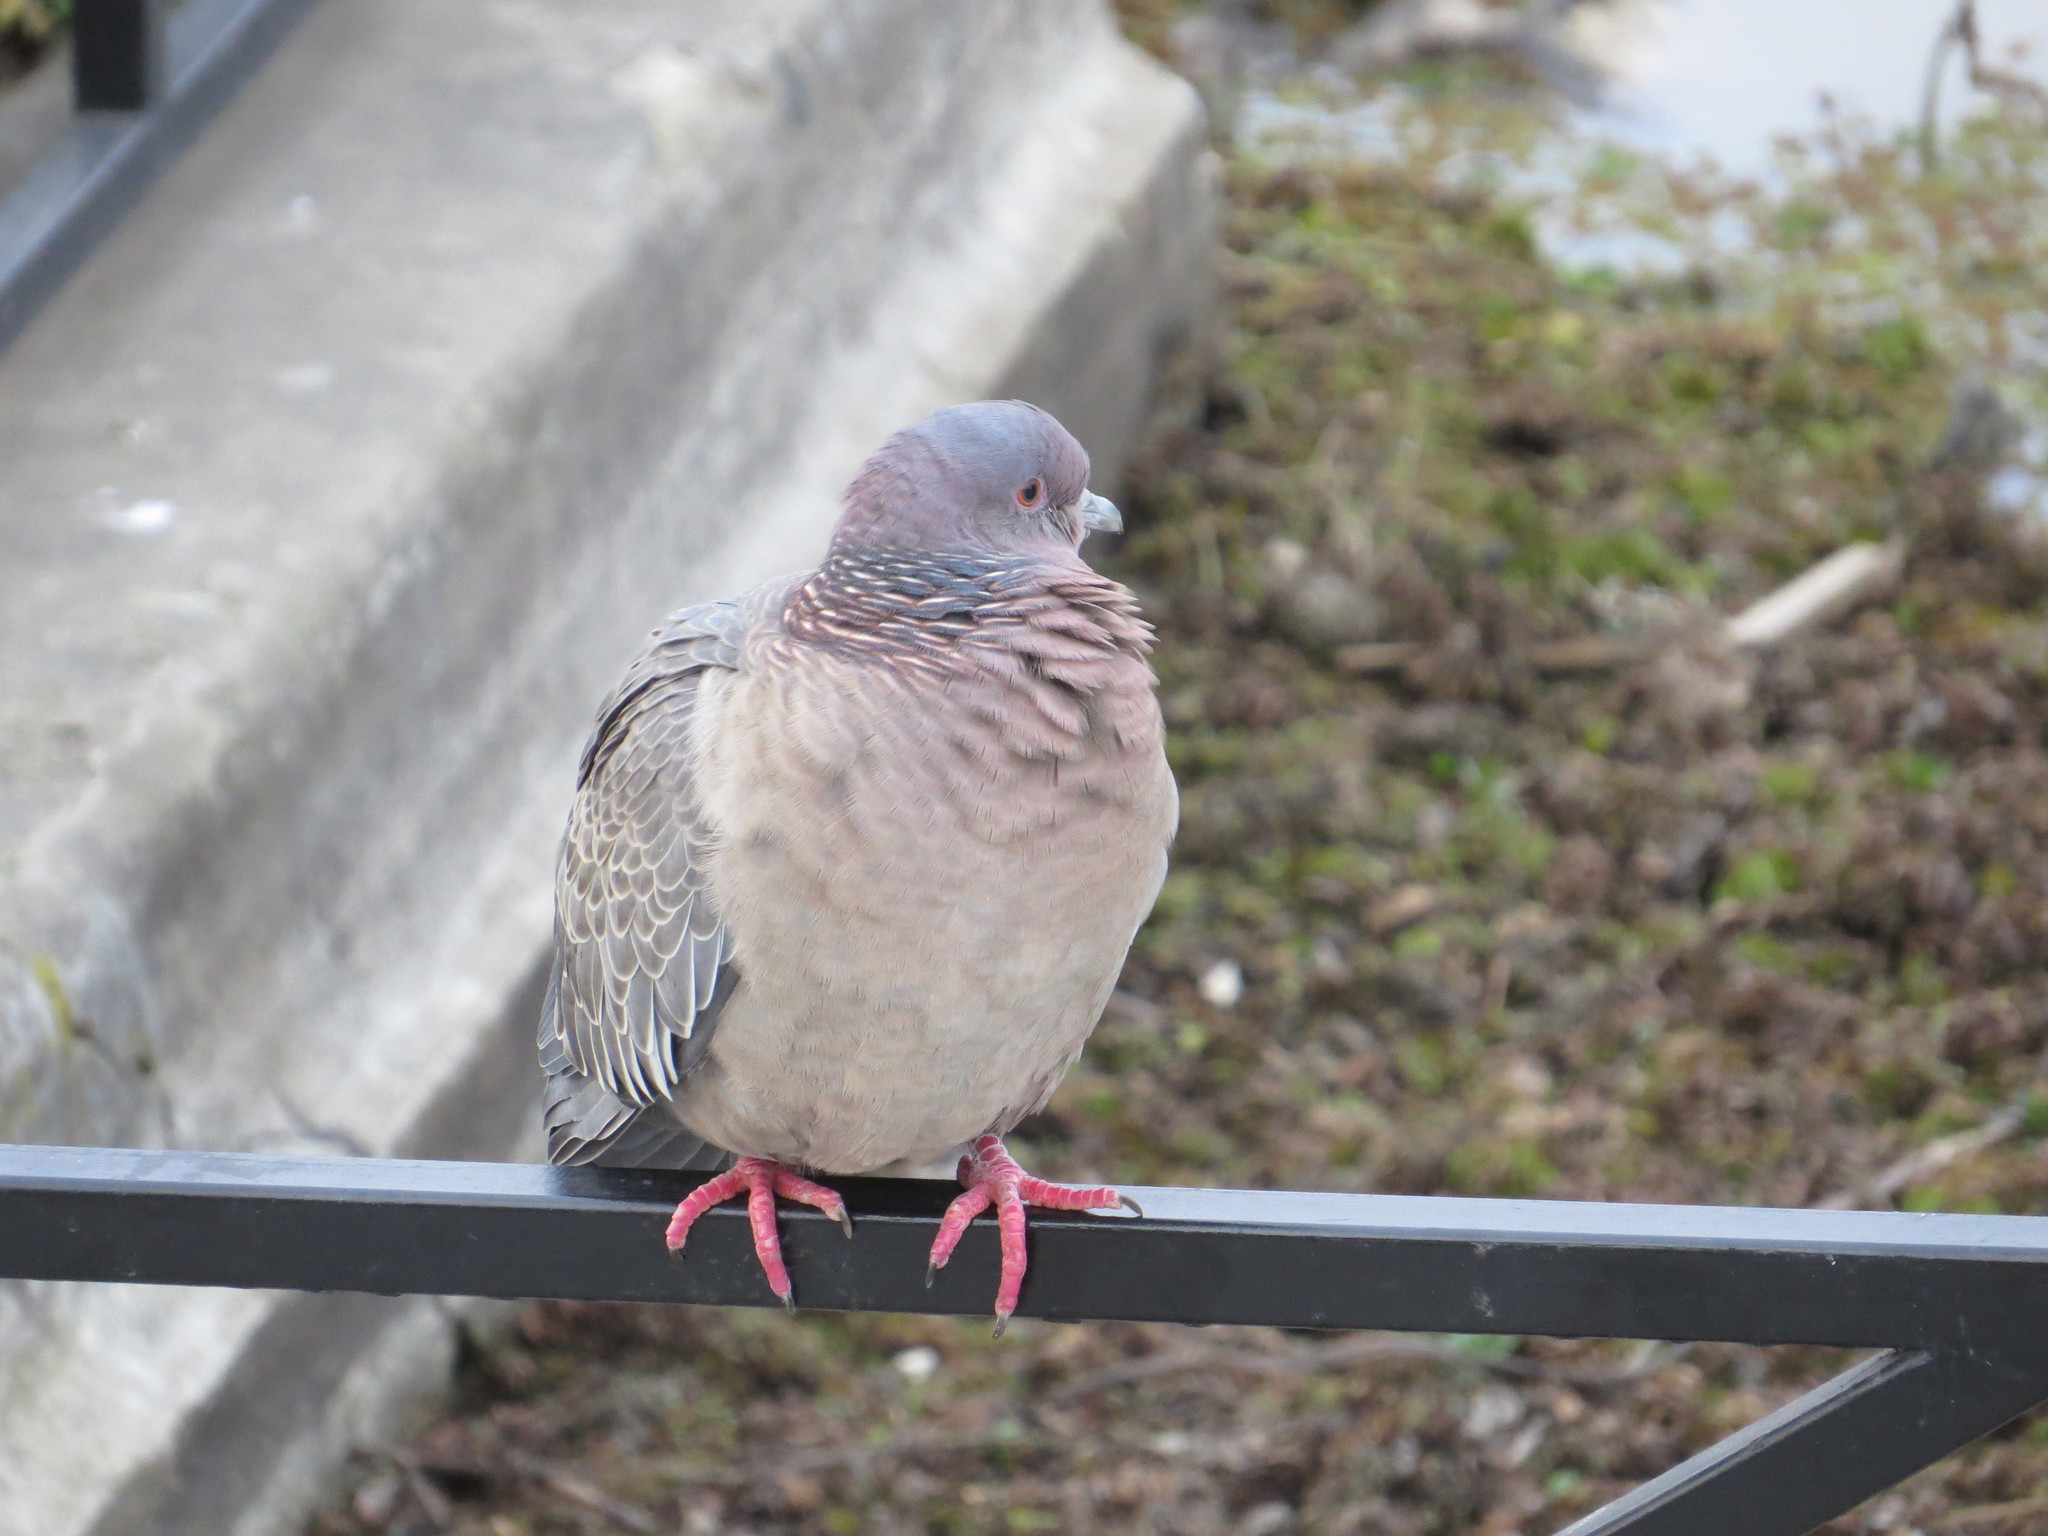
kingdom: Animalia
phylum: Chordata
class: Aves
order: Columbiformes
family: Columbidae
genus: Patagioenas
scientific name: Patagioenas picazuro
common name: Picazuro pigeon
